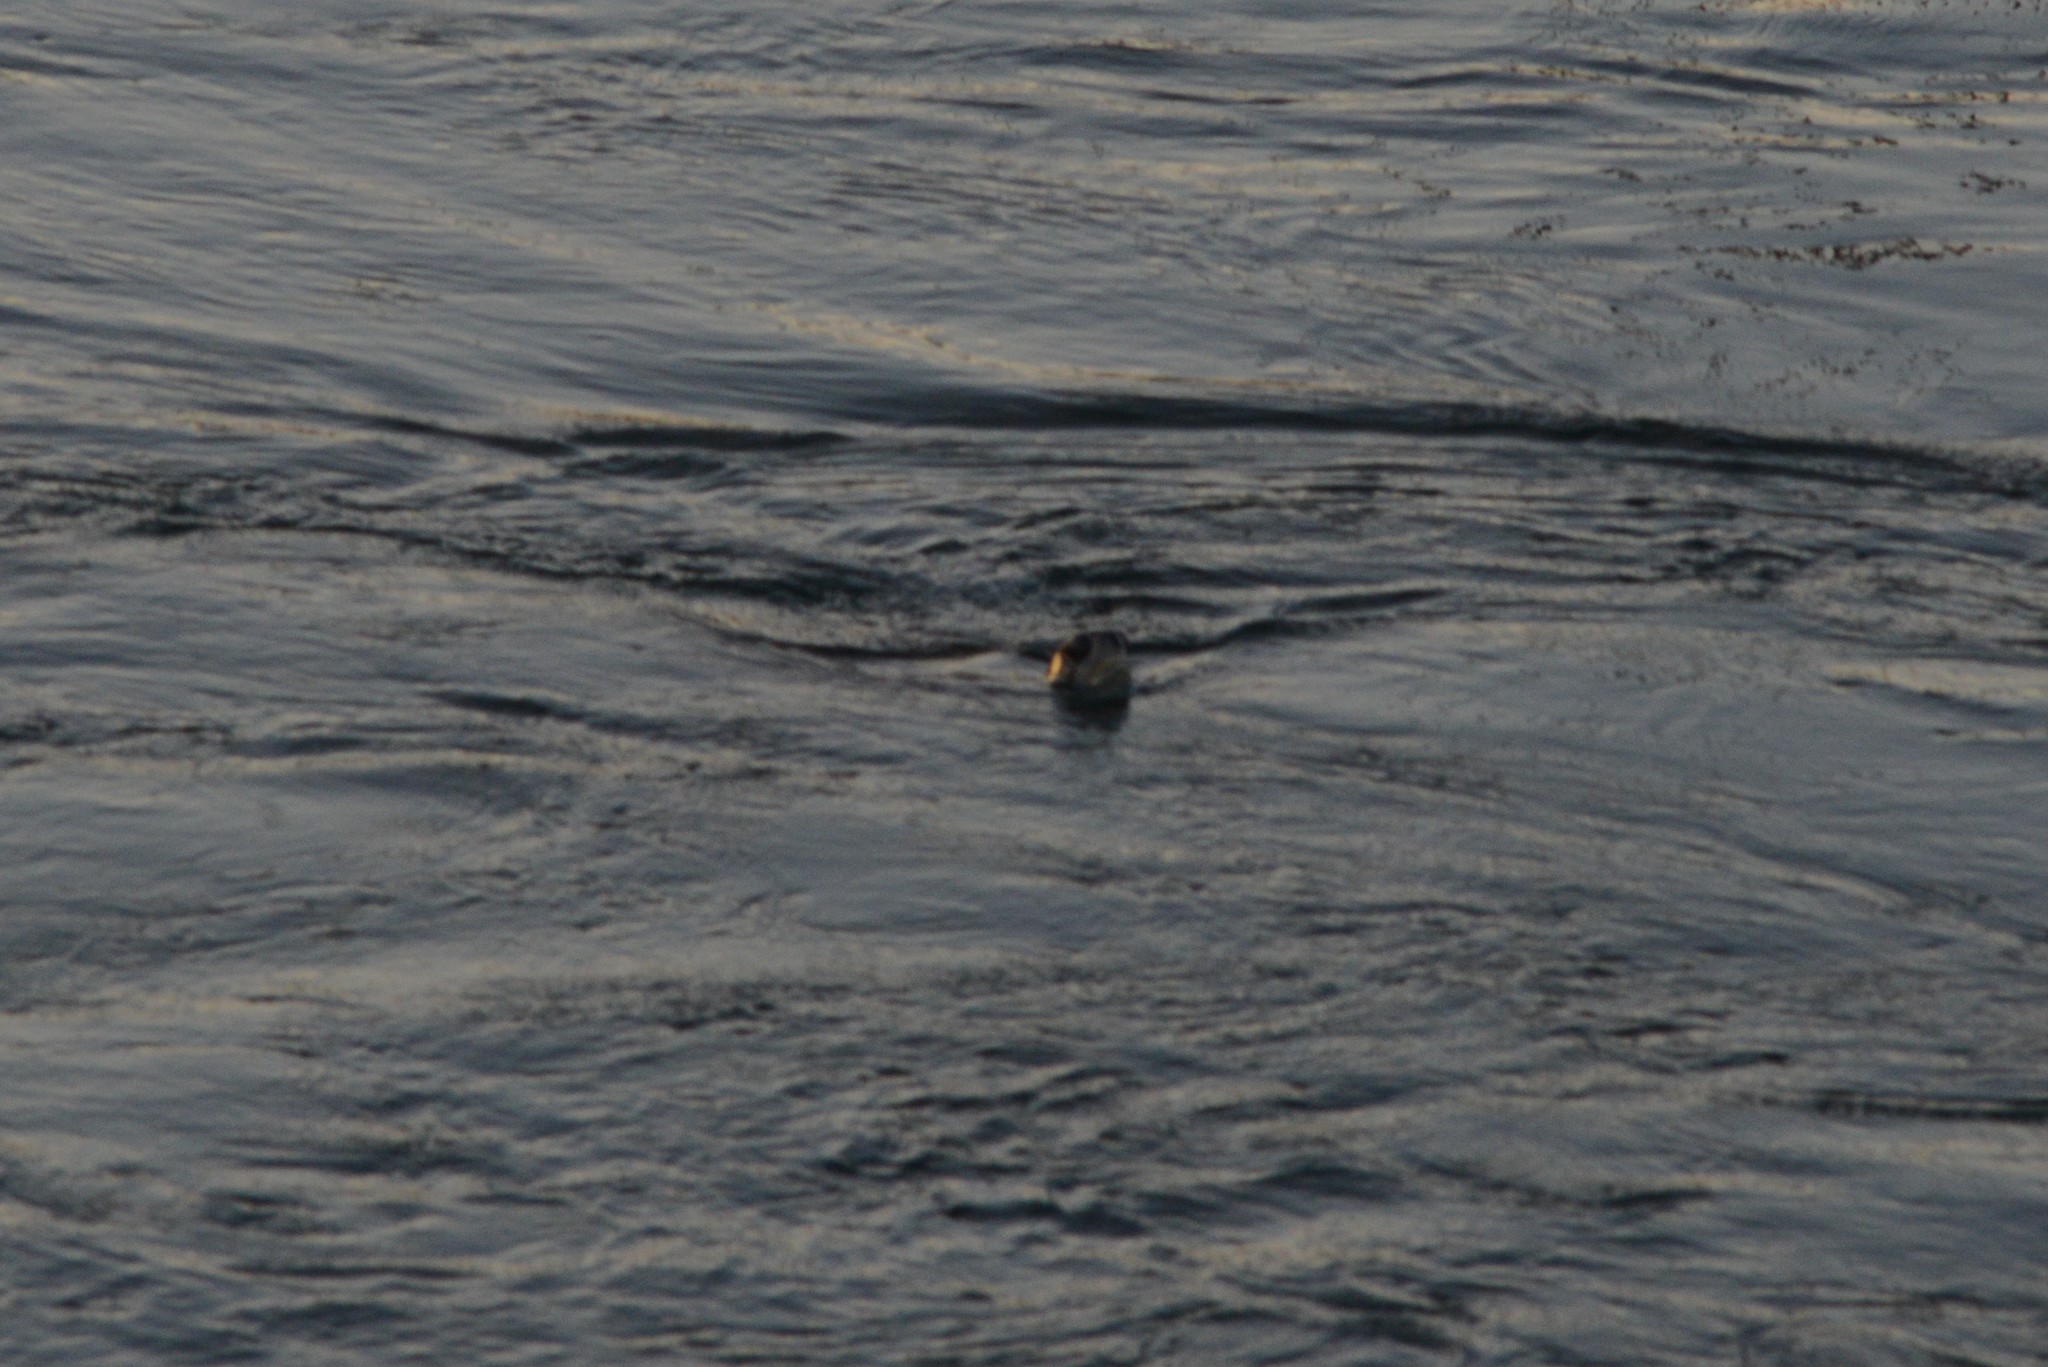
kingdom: Animalia
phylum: Chordata
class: Testudines
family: Cheloniidae
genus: Chelonia
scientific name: Chelonia mydas
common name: Green turtle
